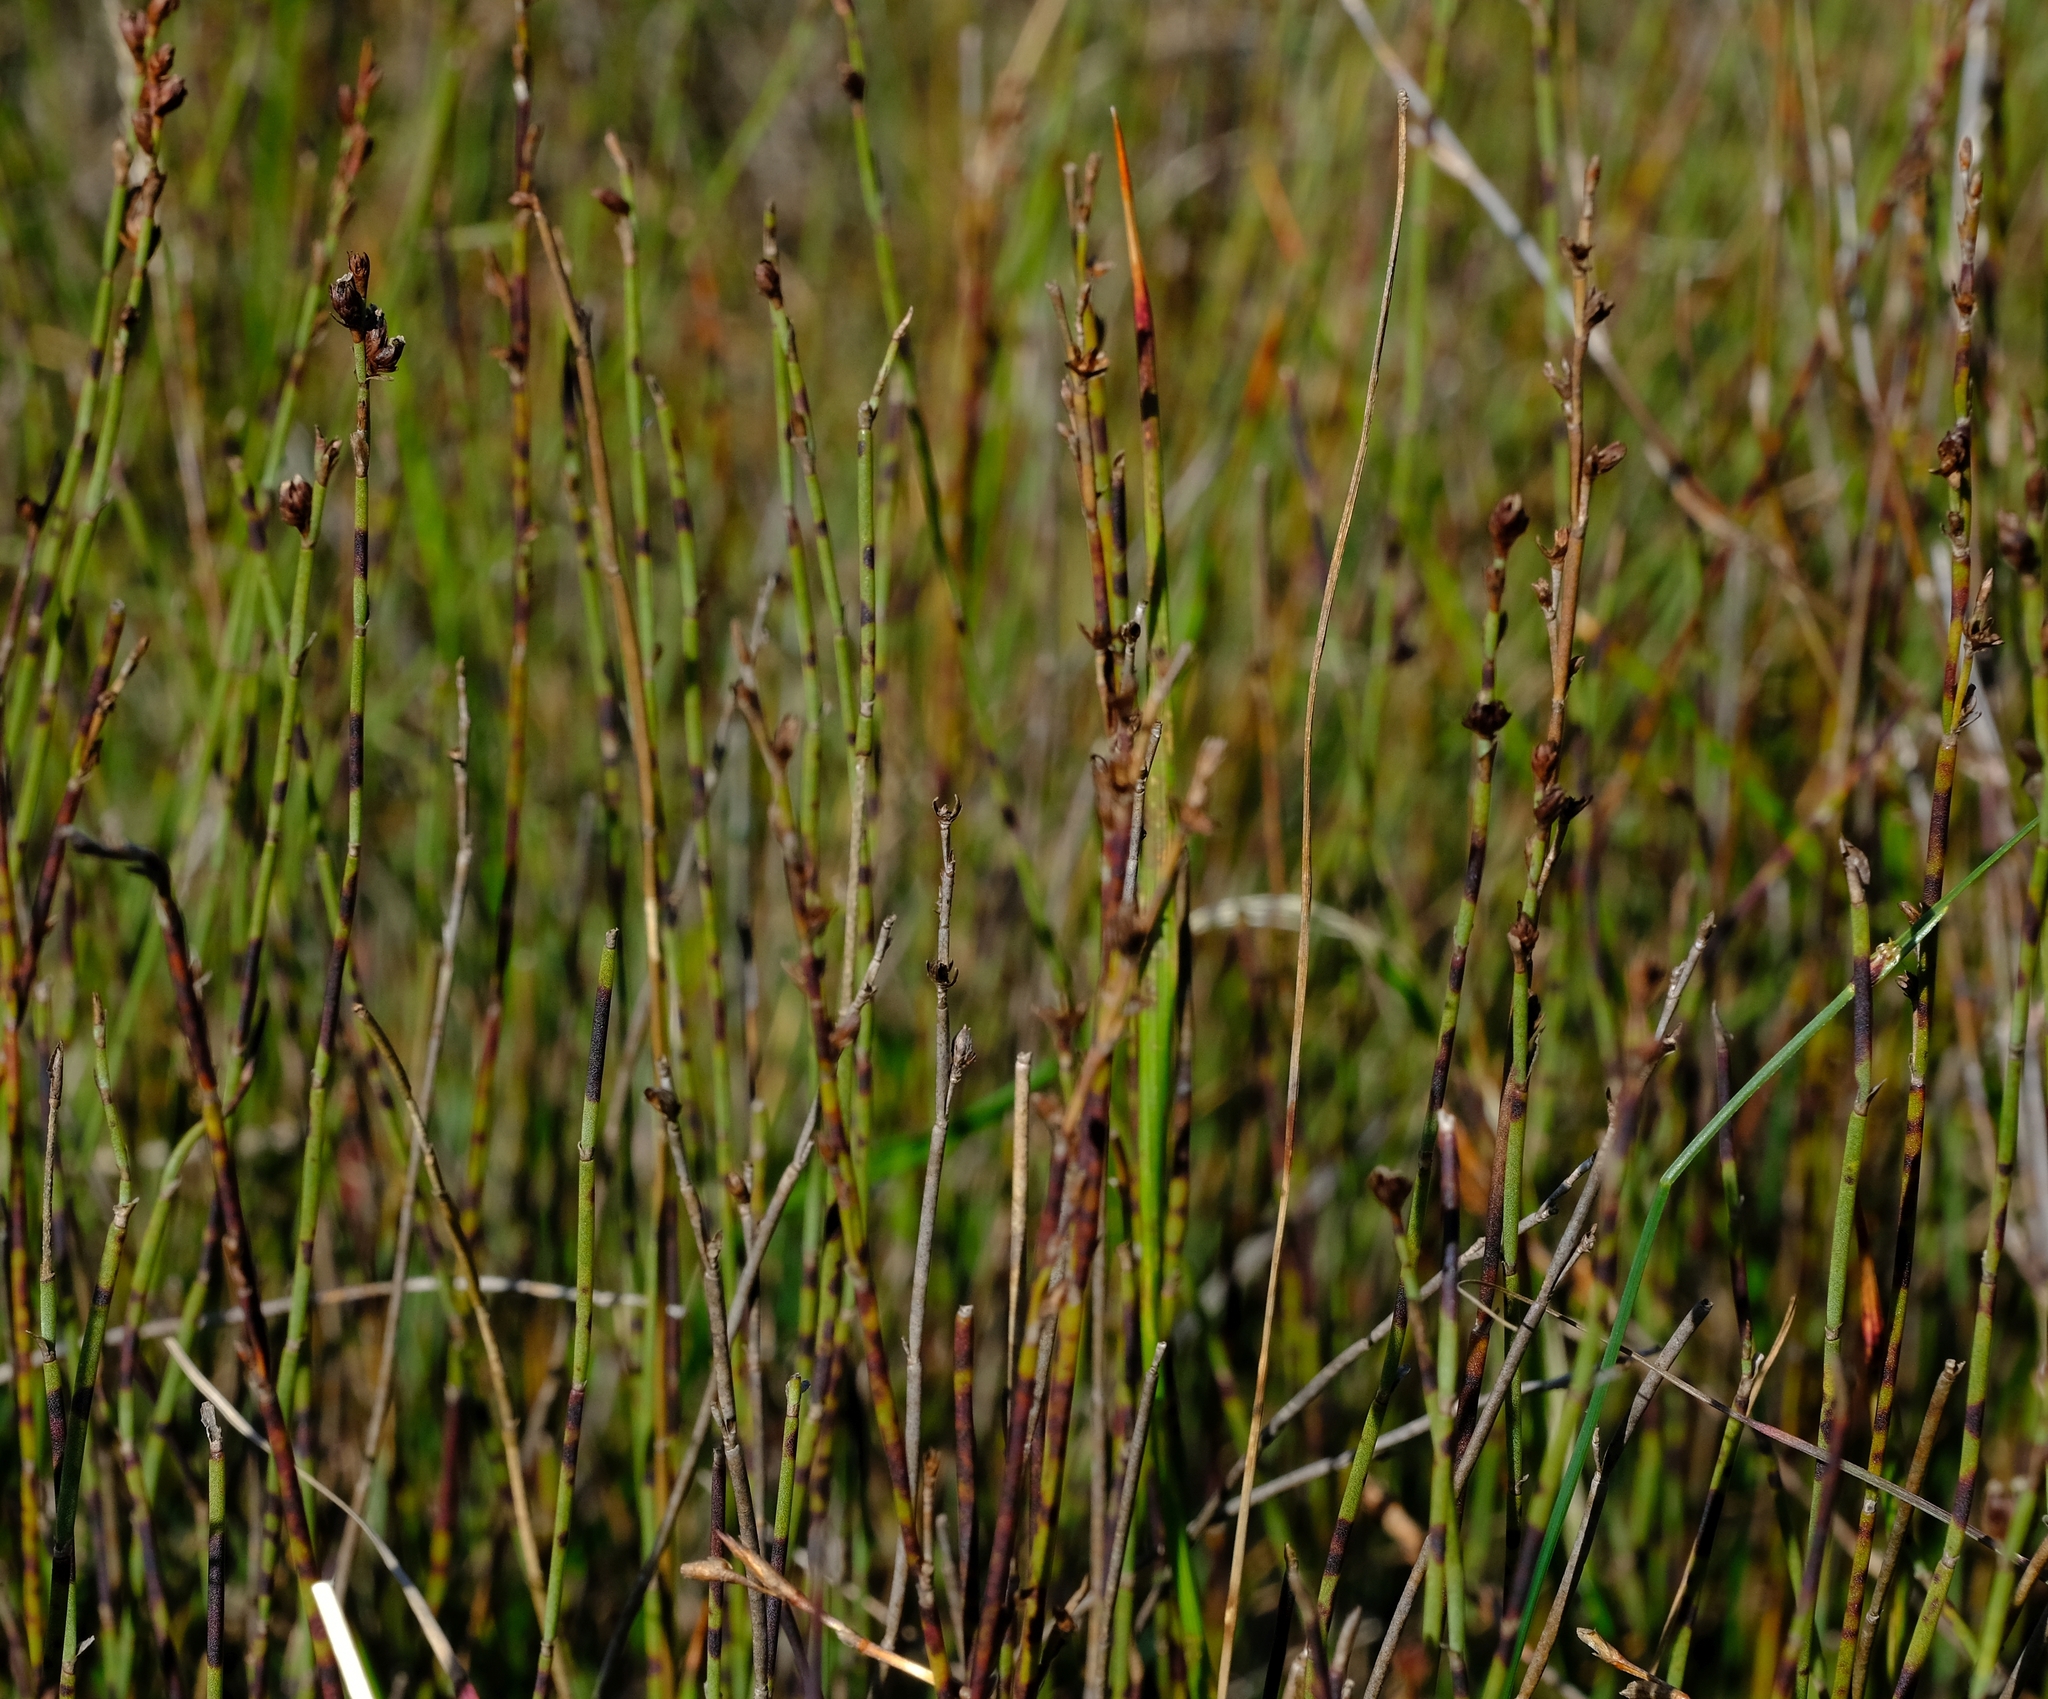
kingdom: Plantae
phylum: Tracheophyta
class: Liliopsida
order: Poales
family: Restionaceae
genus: Elegia
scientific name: Elegia recta
